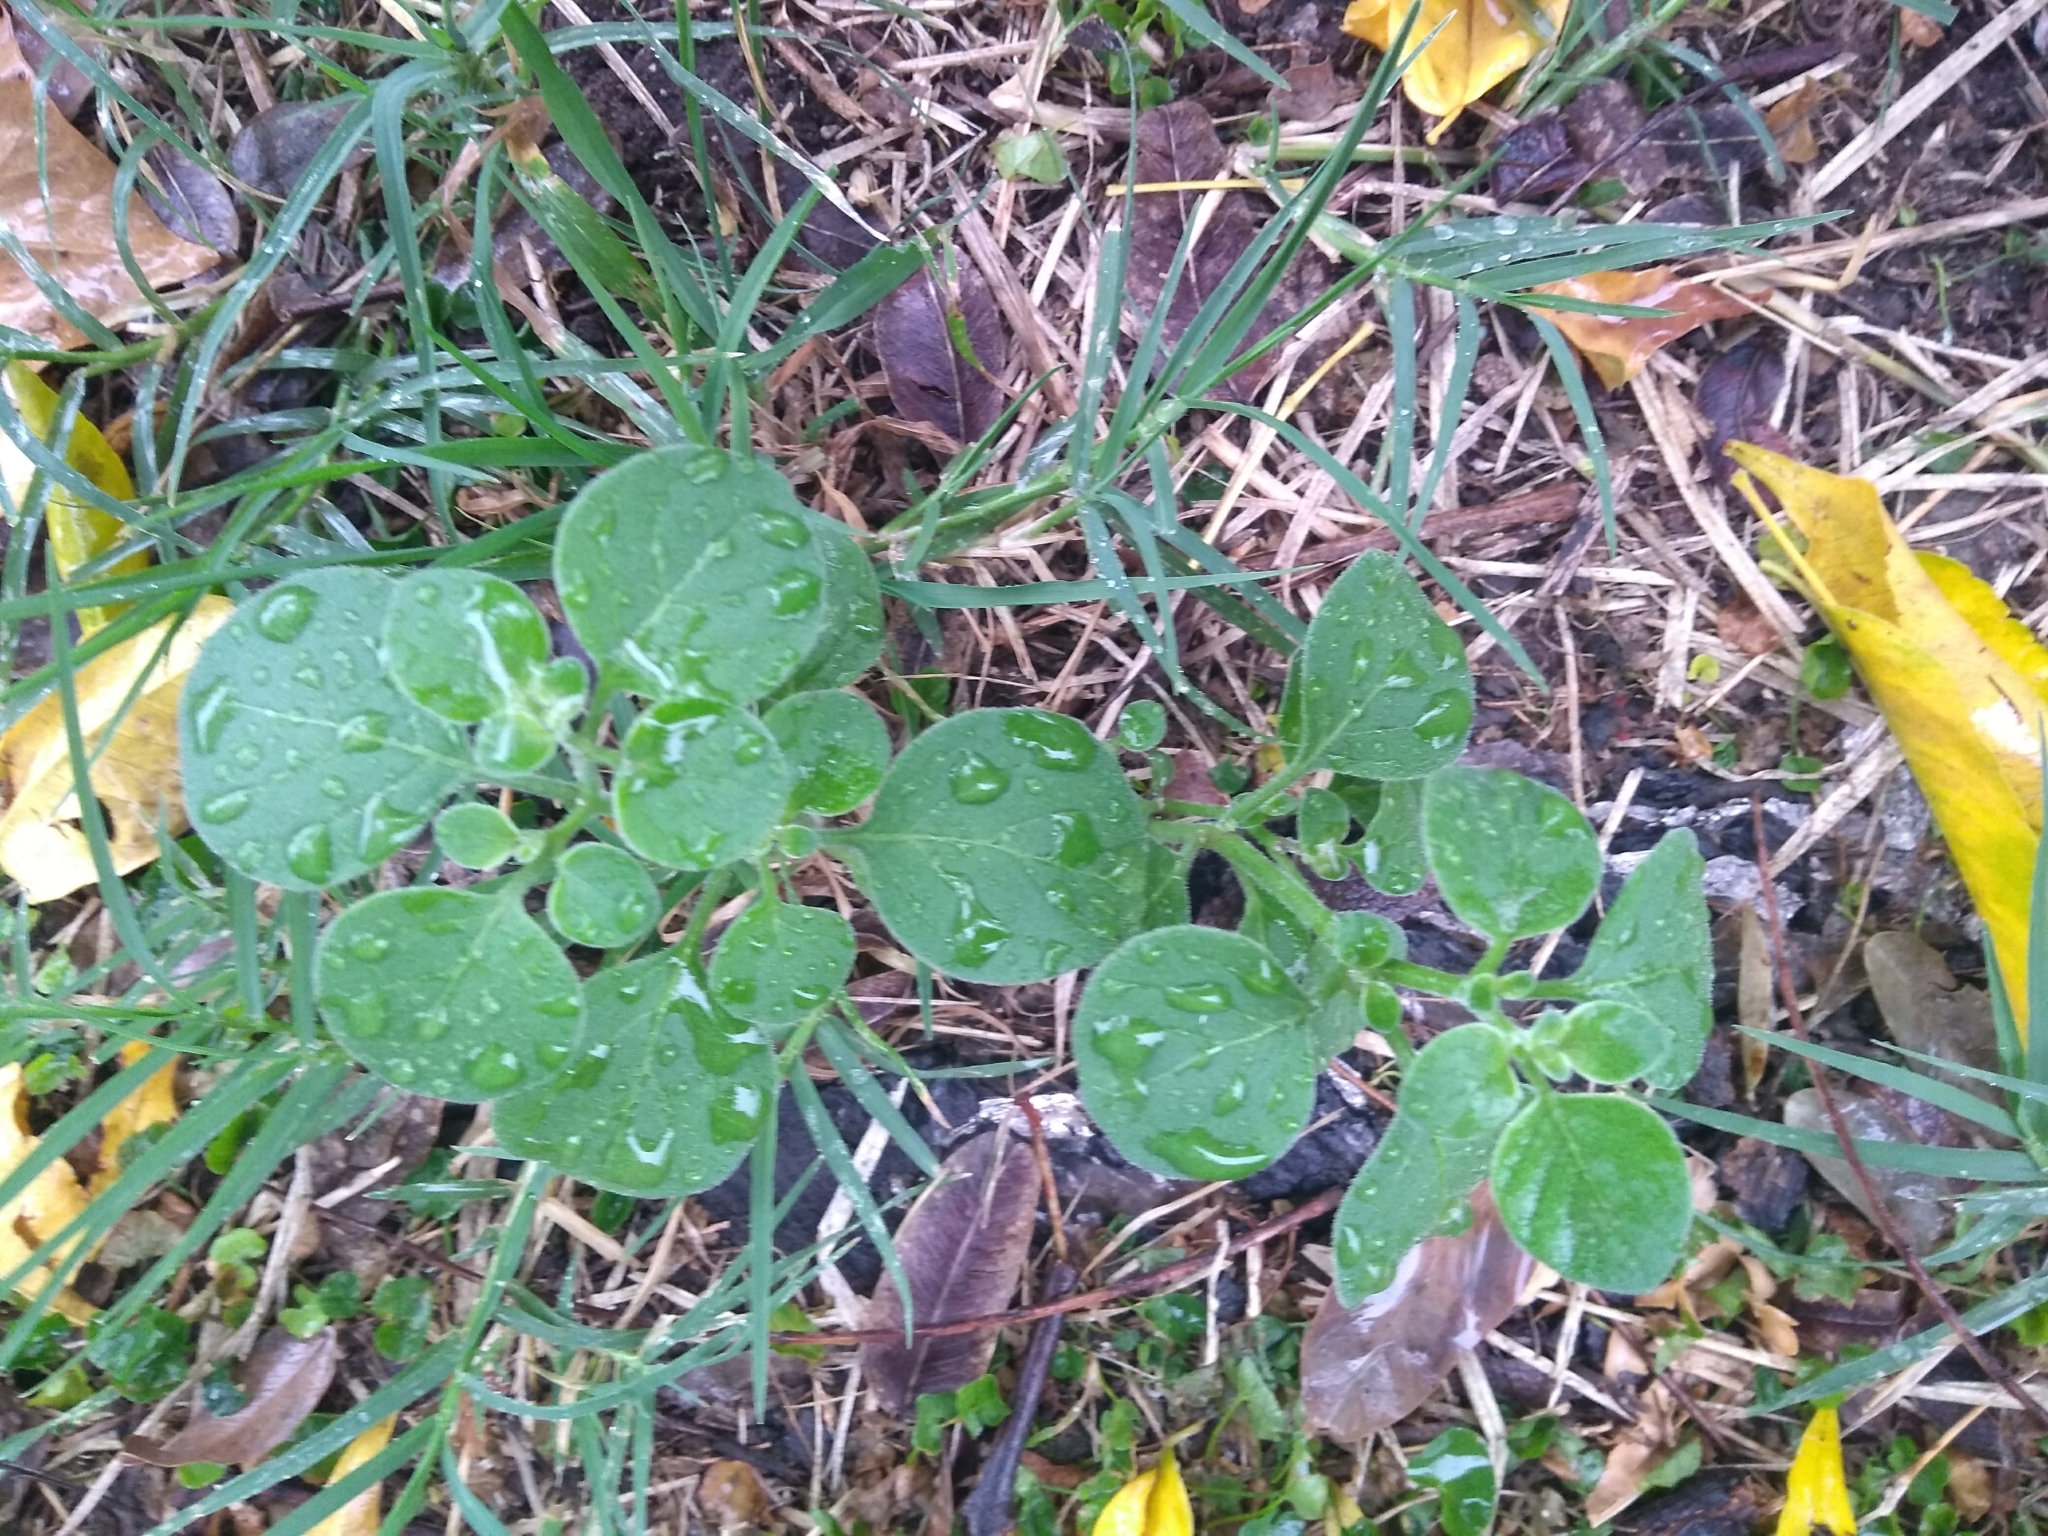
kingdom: Plantae
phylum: Tracheophyta
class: Magnoliopsida
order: Solanales
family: Solanaceae
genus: Salpichroa
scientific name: Salpichroa origanifolia
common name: Lily-of-the-valley-vine
